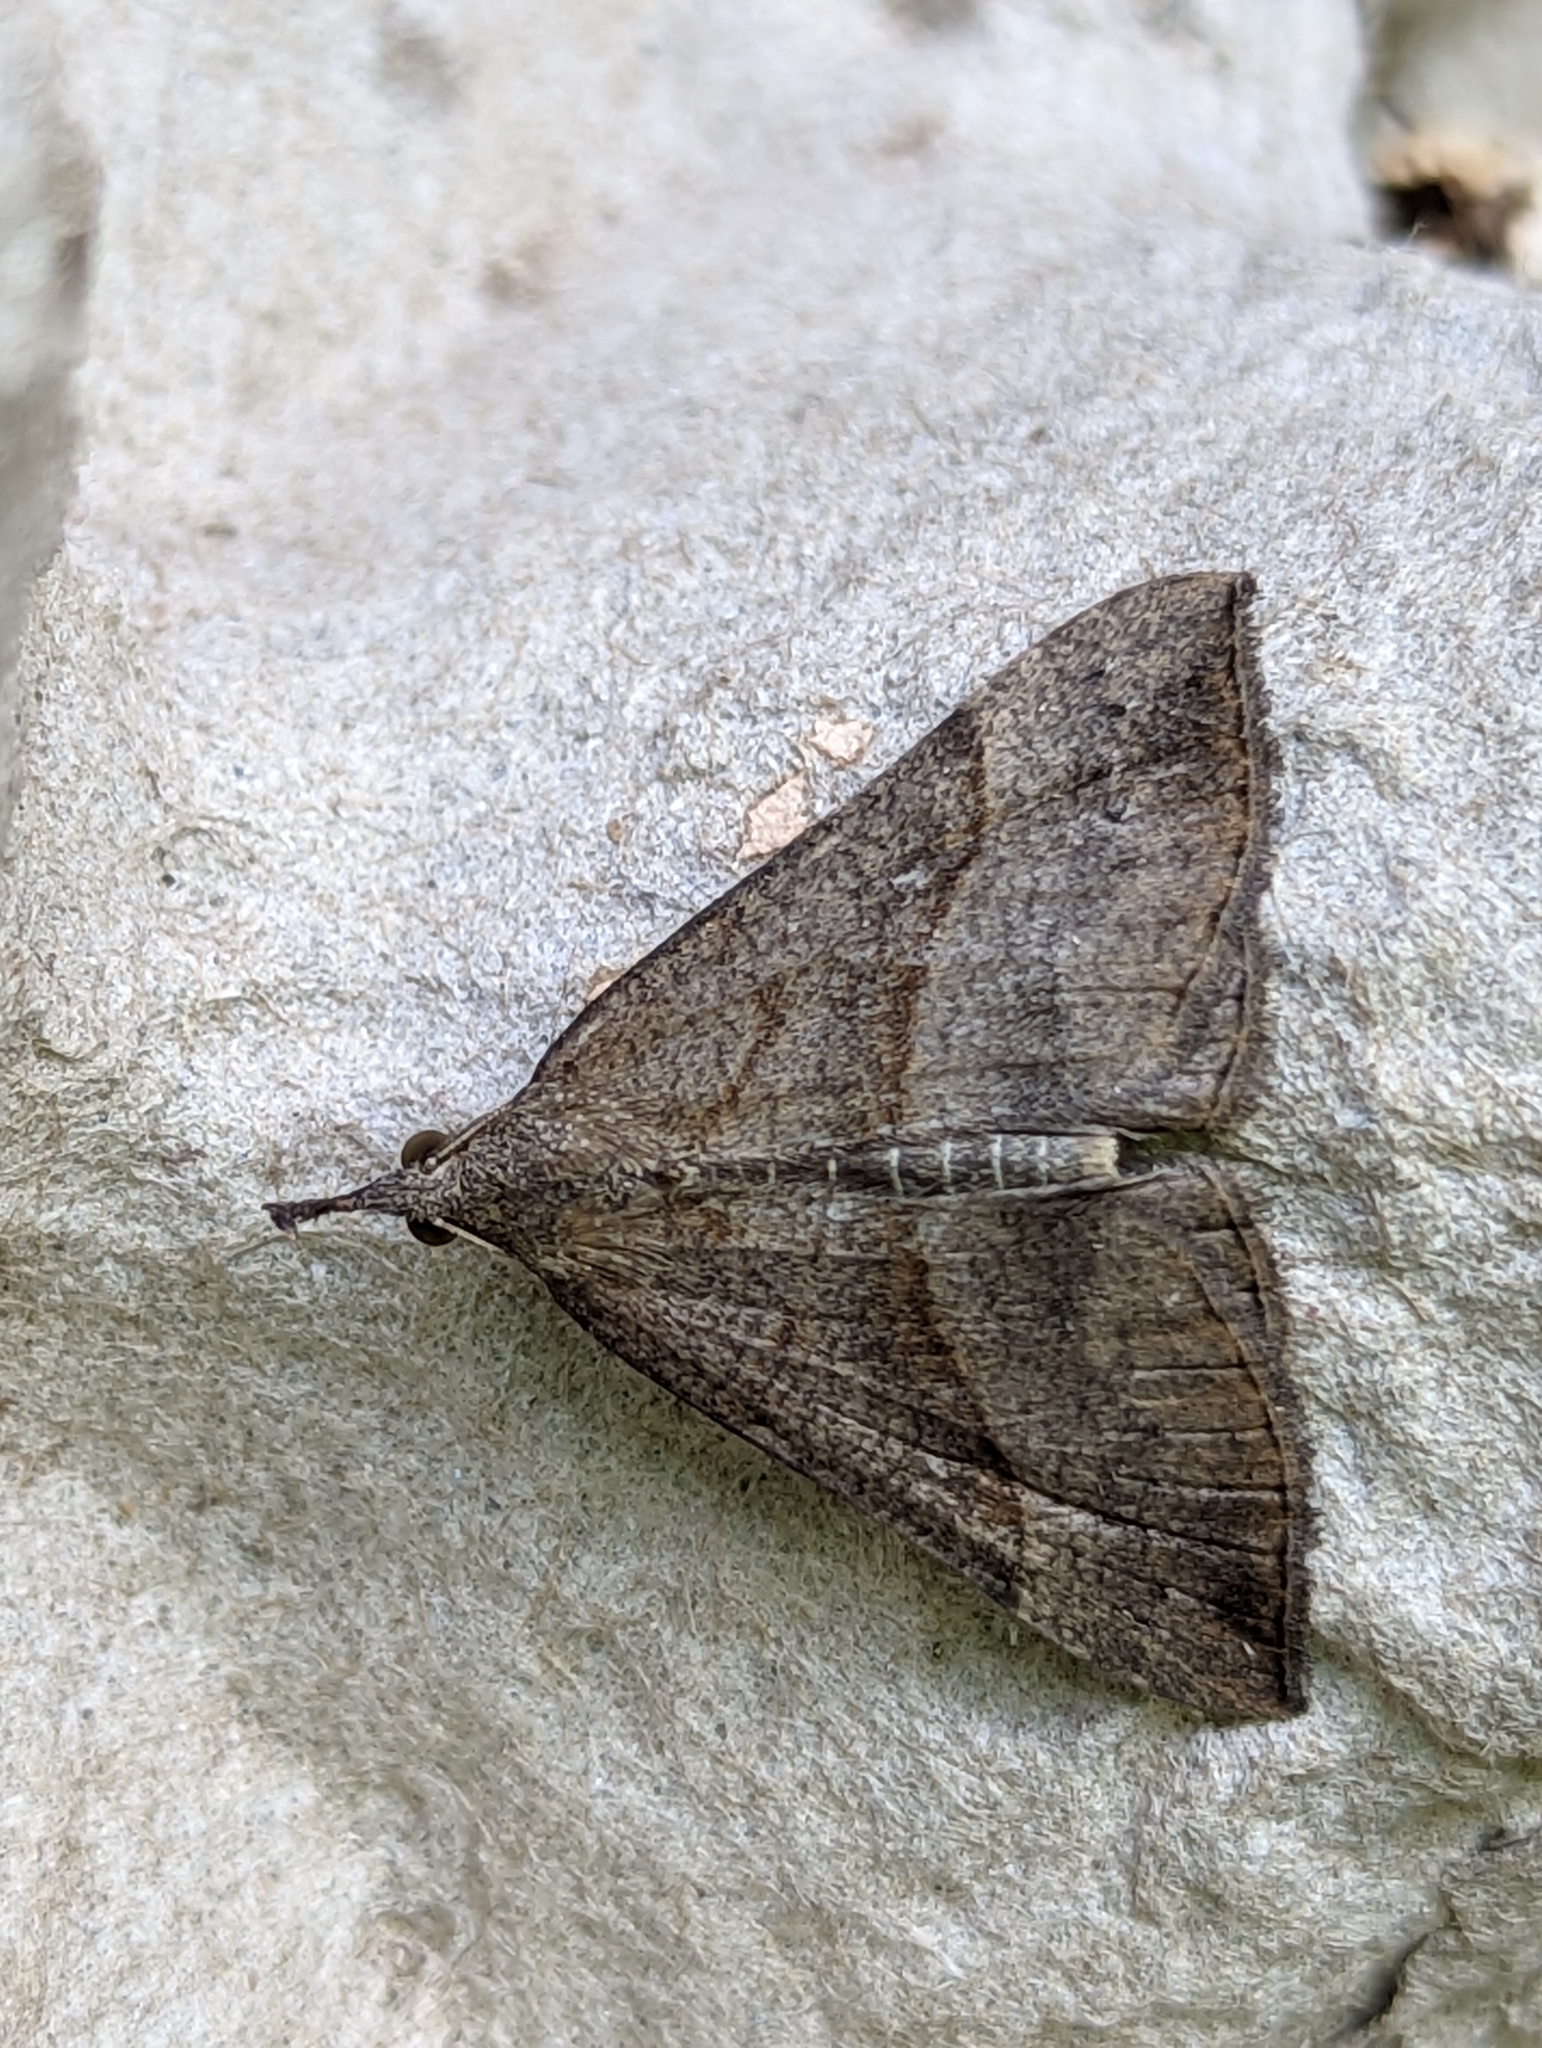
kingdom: Animalia
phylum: Arthropoda
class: Insecta
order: Lepidoptera
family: Erebidae
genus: Hypena
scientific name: Hypena proboscidalis
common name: Snout
